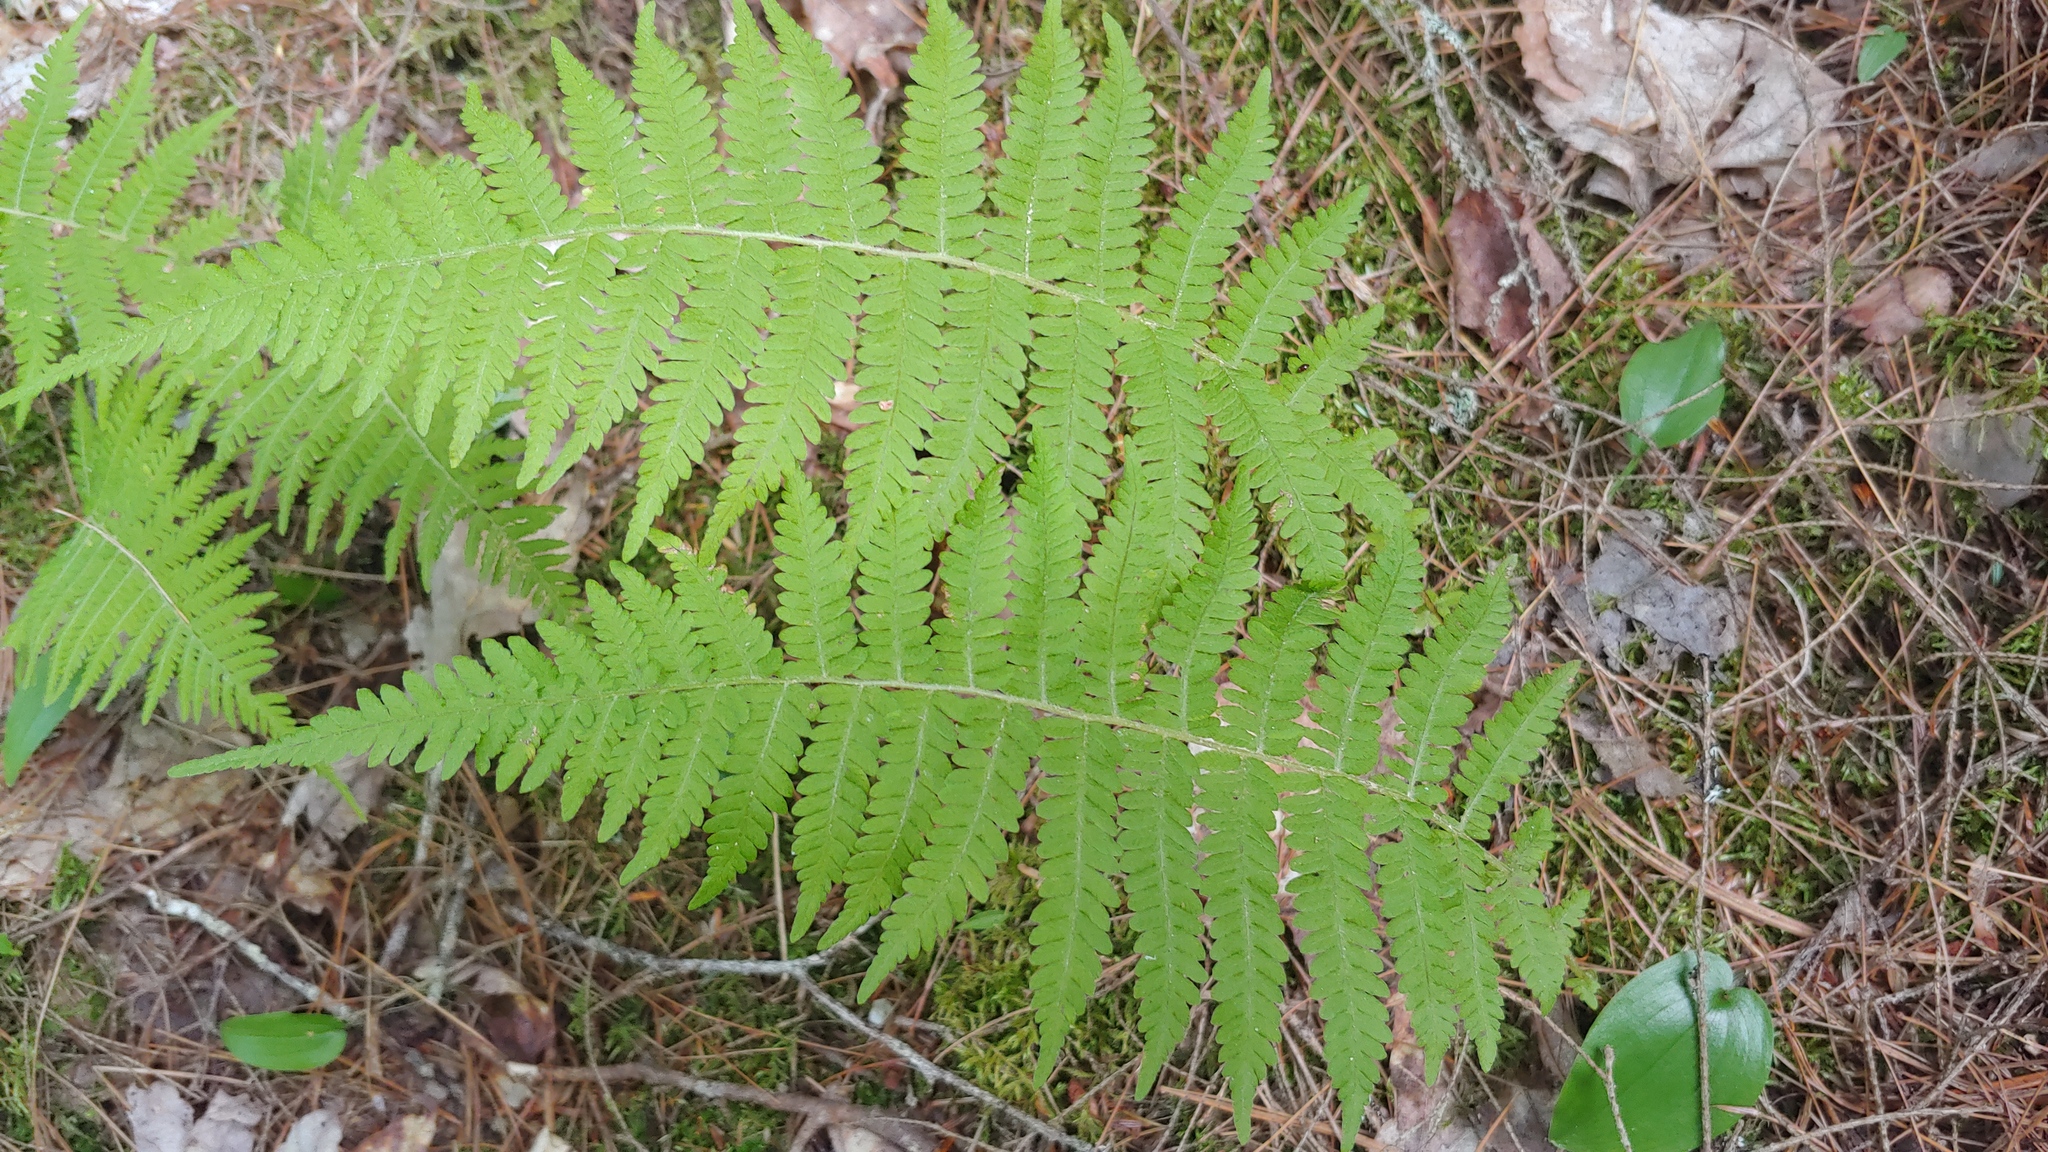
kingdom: Plantae
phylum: Tracheophyta
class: Polypodiopsida
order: Polypodiales
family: Thelypteridaceae
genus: Amauropelta
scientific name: Amauropelta noveboracensis
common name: New york fern
